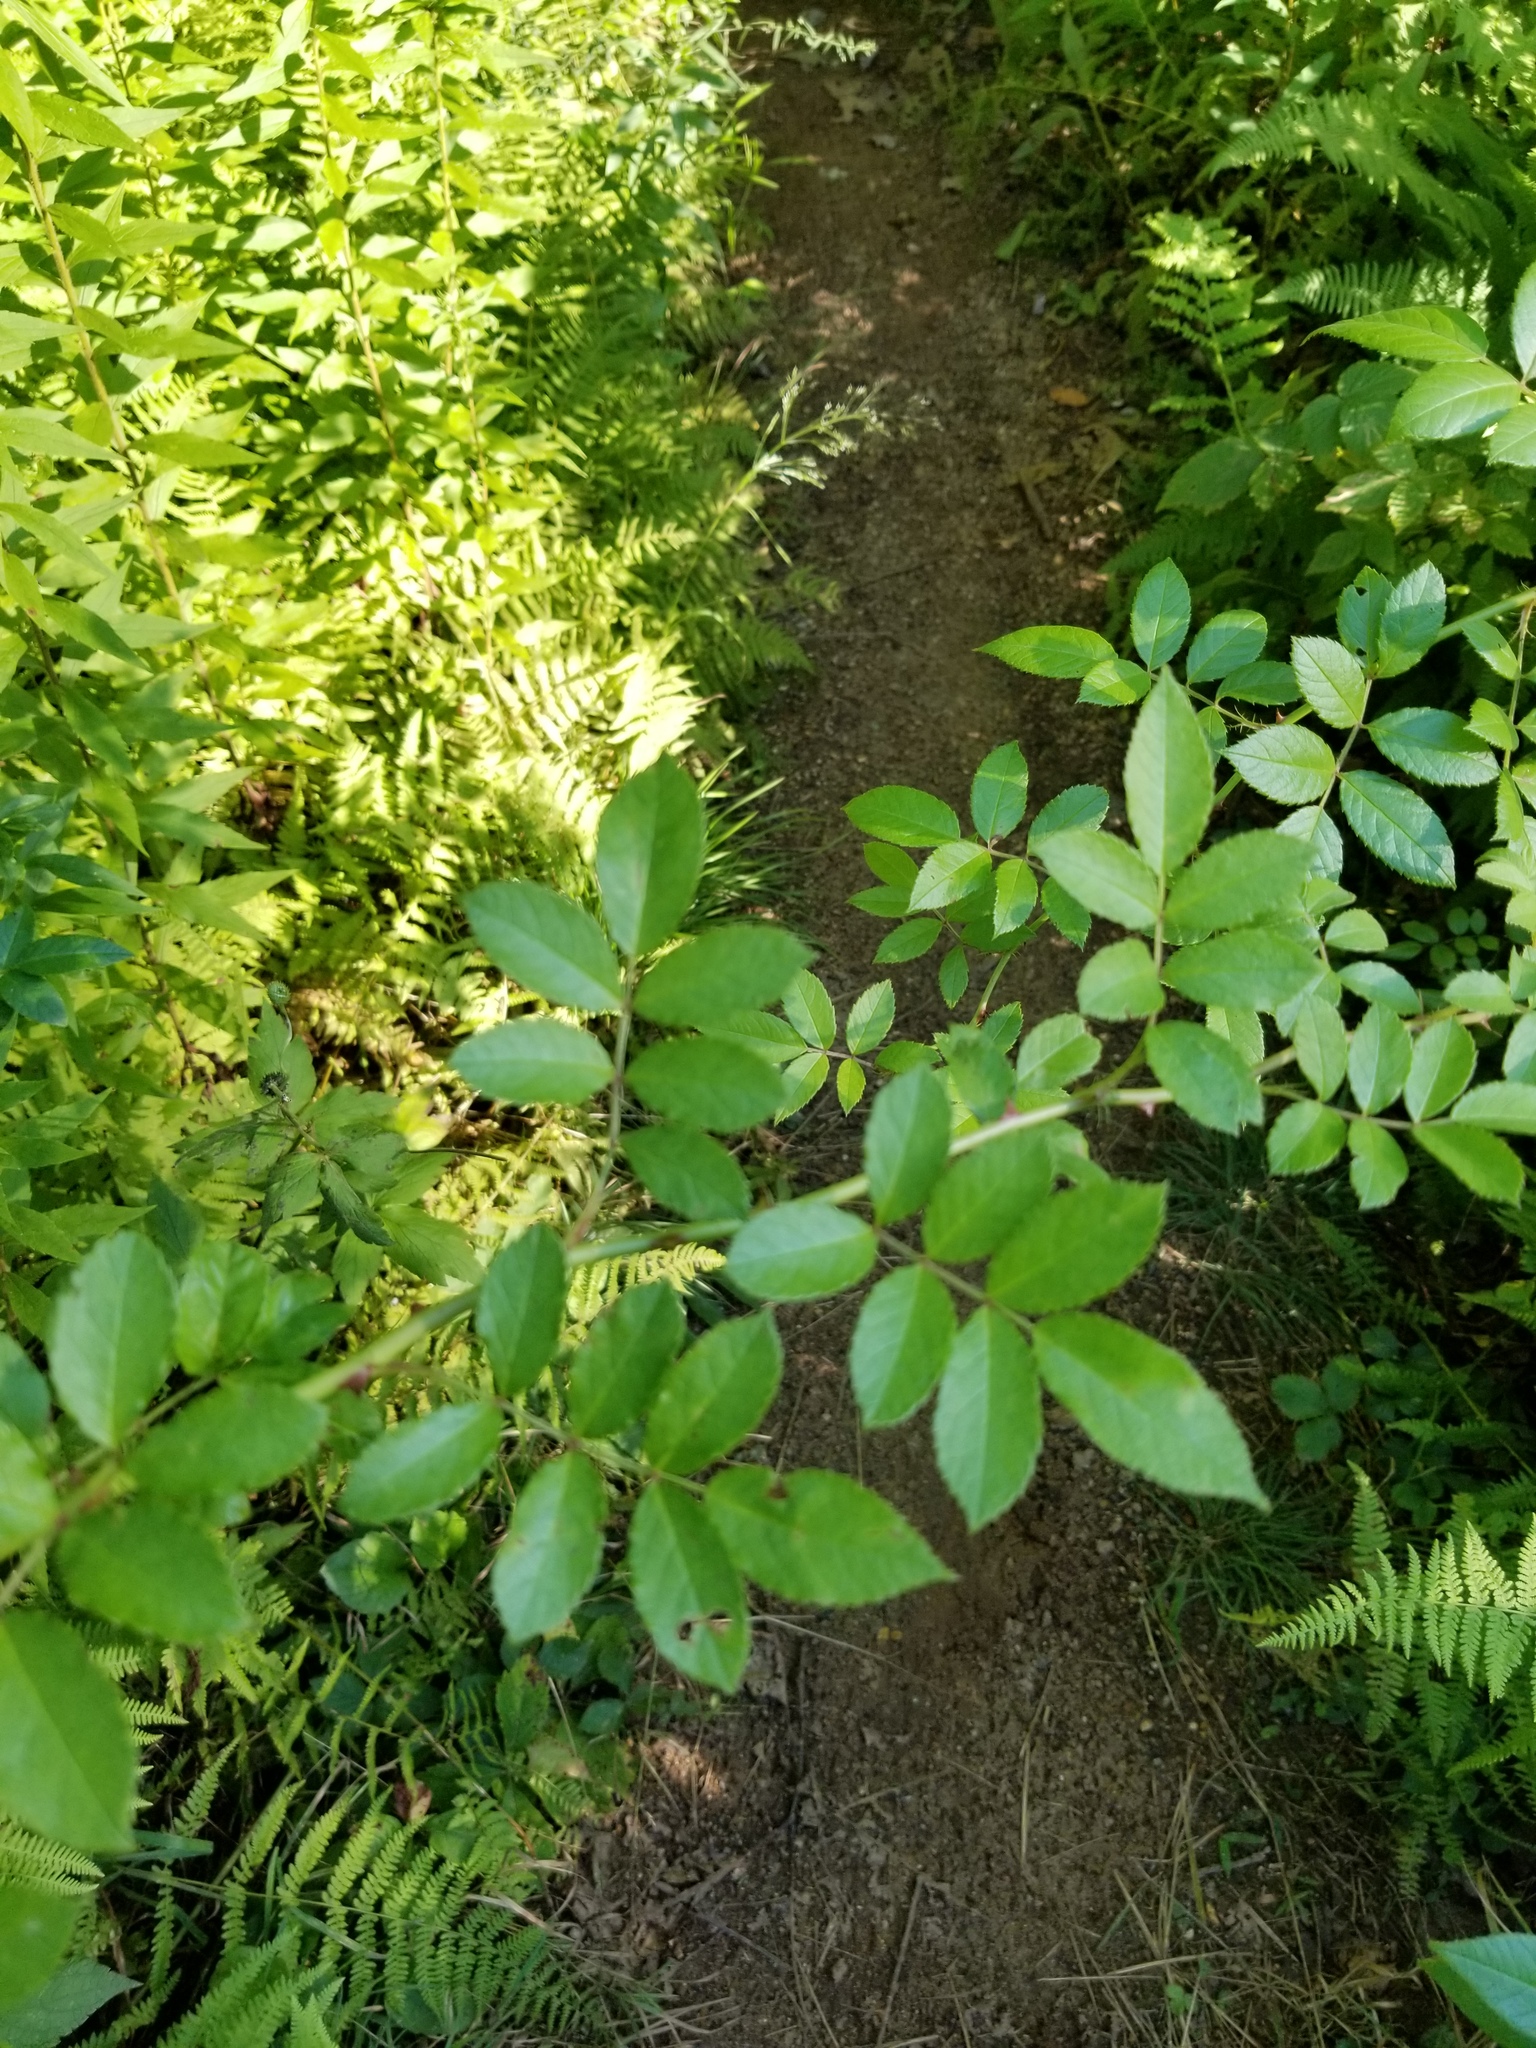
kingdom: Plantae
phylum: Tracheophyta
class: Magnoliopsida
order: Rosales
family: Rosaceae
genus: Rosa
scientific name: Rosa multiflora
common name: Multiflora rose
